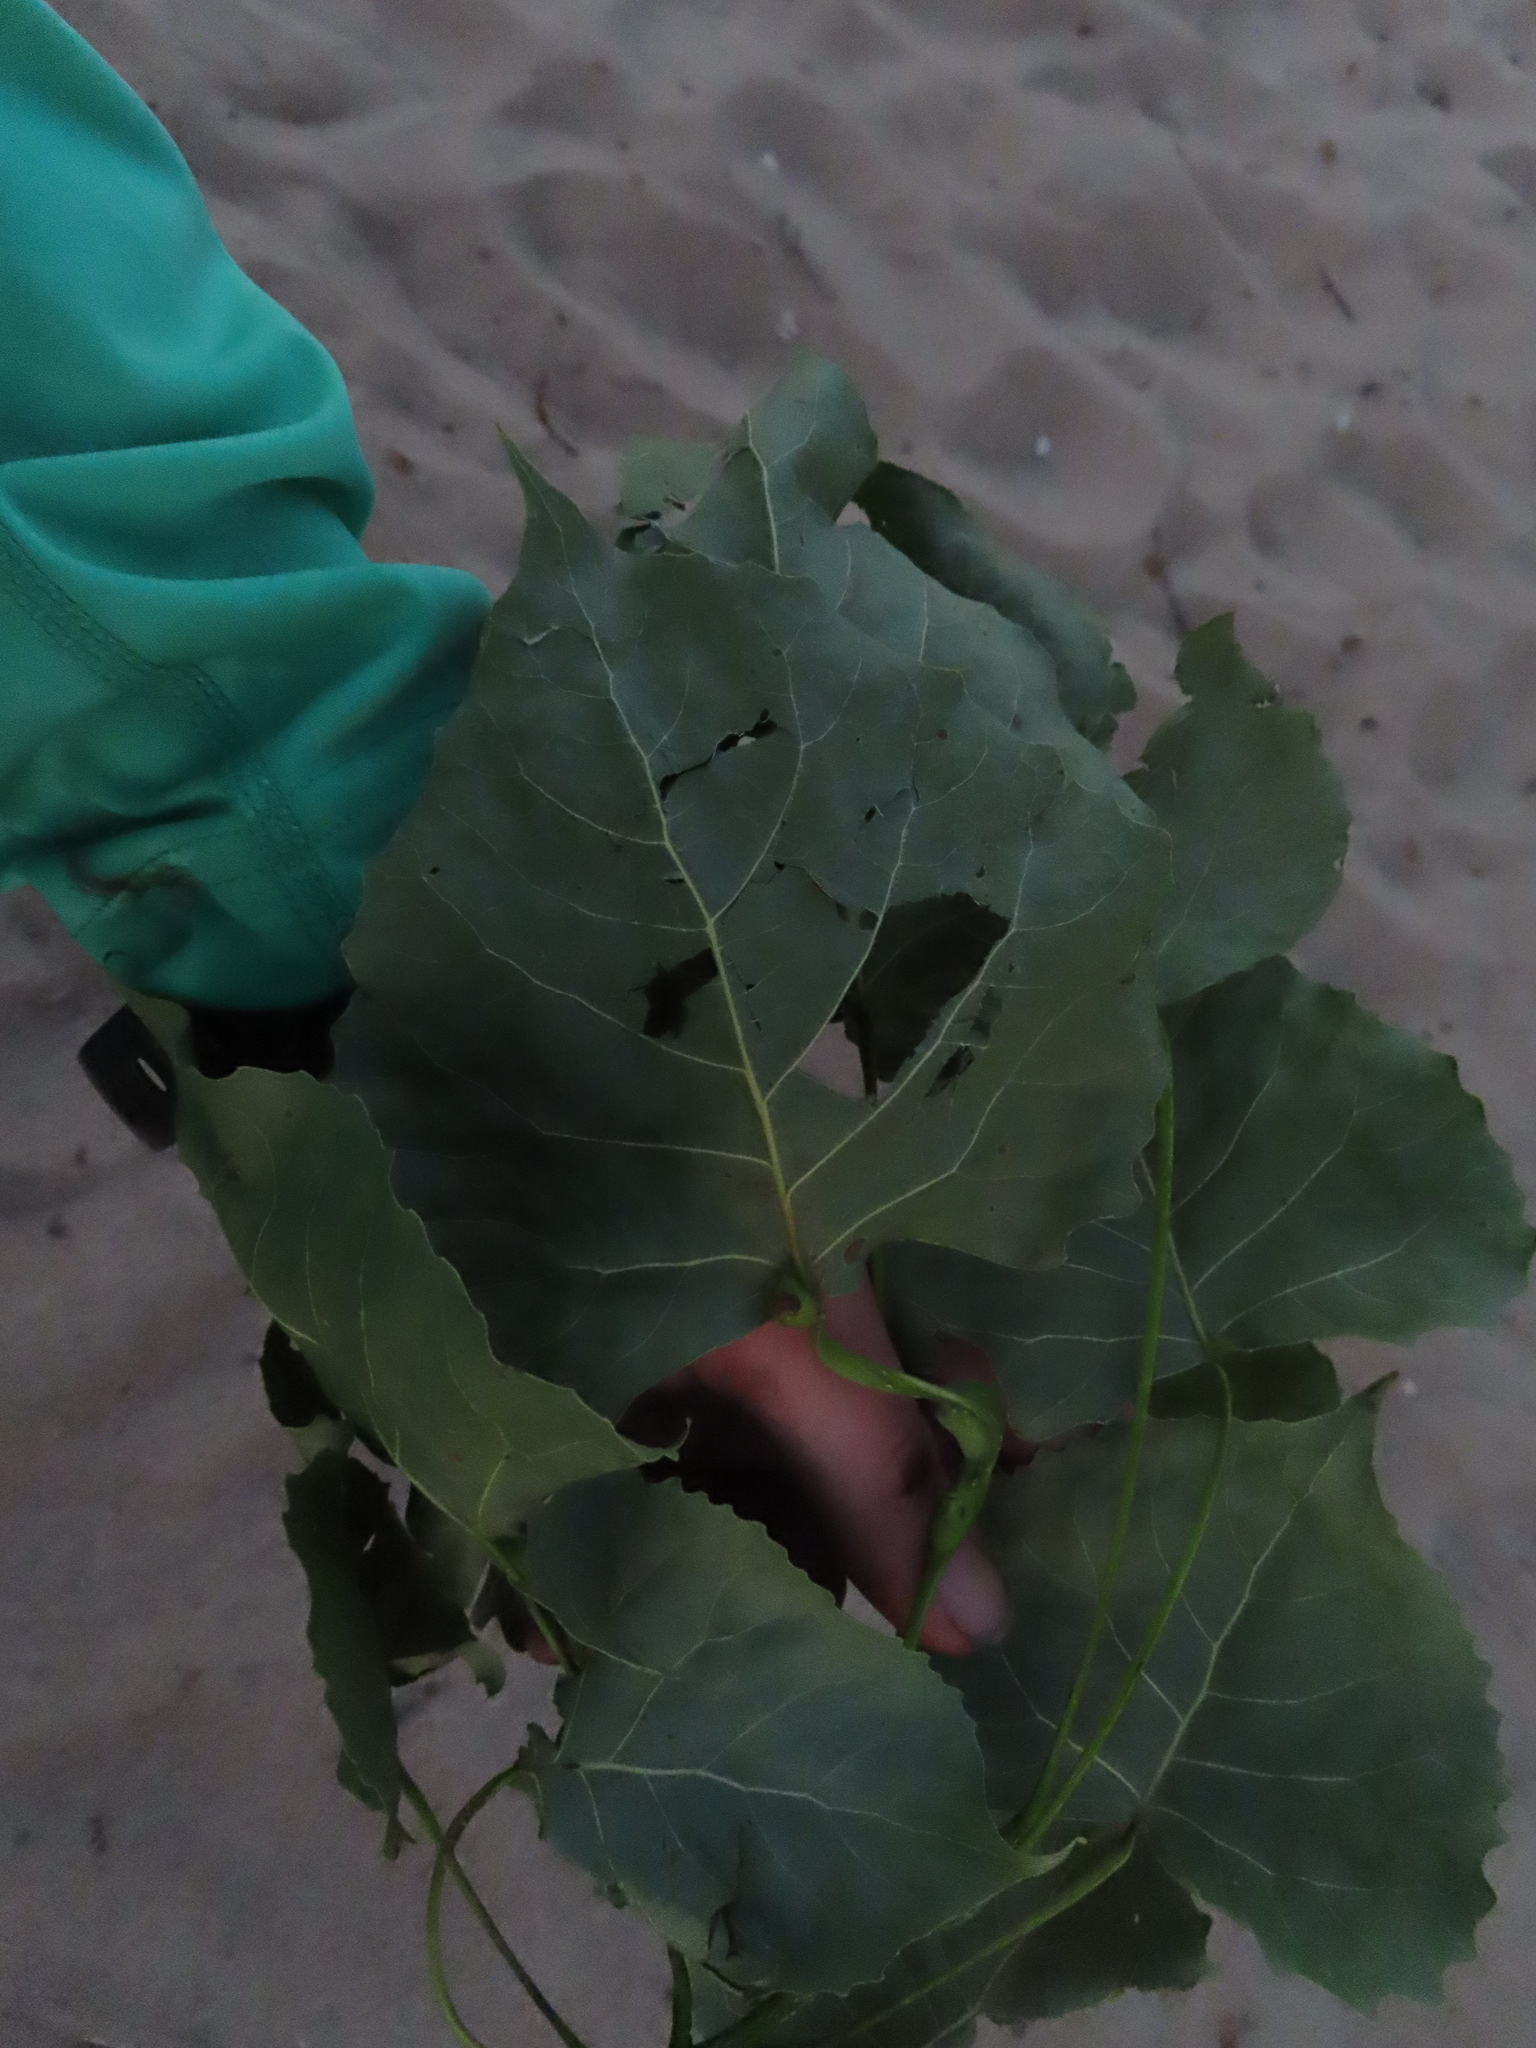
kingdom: Plantae
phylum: Tracheophyta
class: Magnoliopsida
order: Malpighiales
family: Salicaceae
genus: Populus
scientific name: Populus deltoides
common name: Eastern cottonwood
